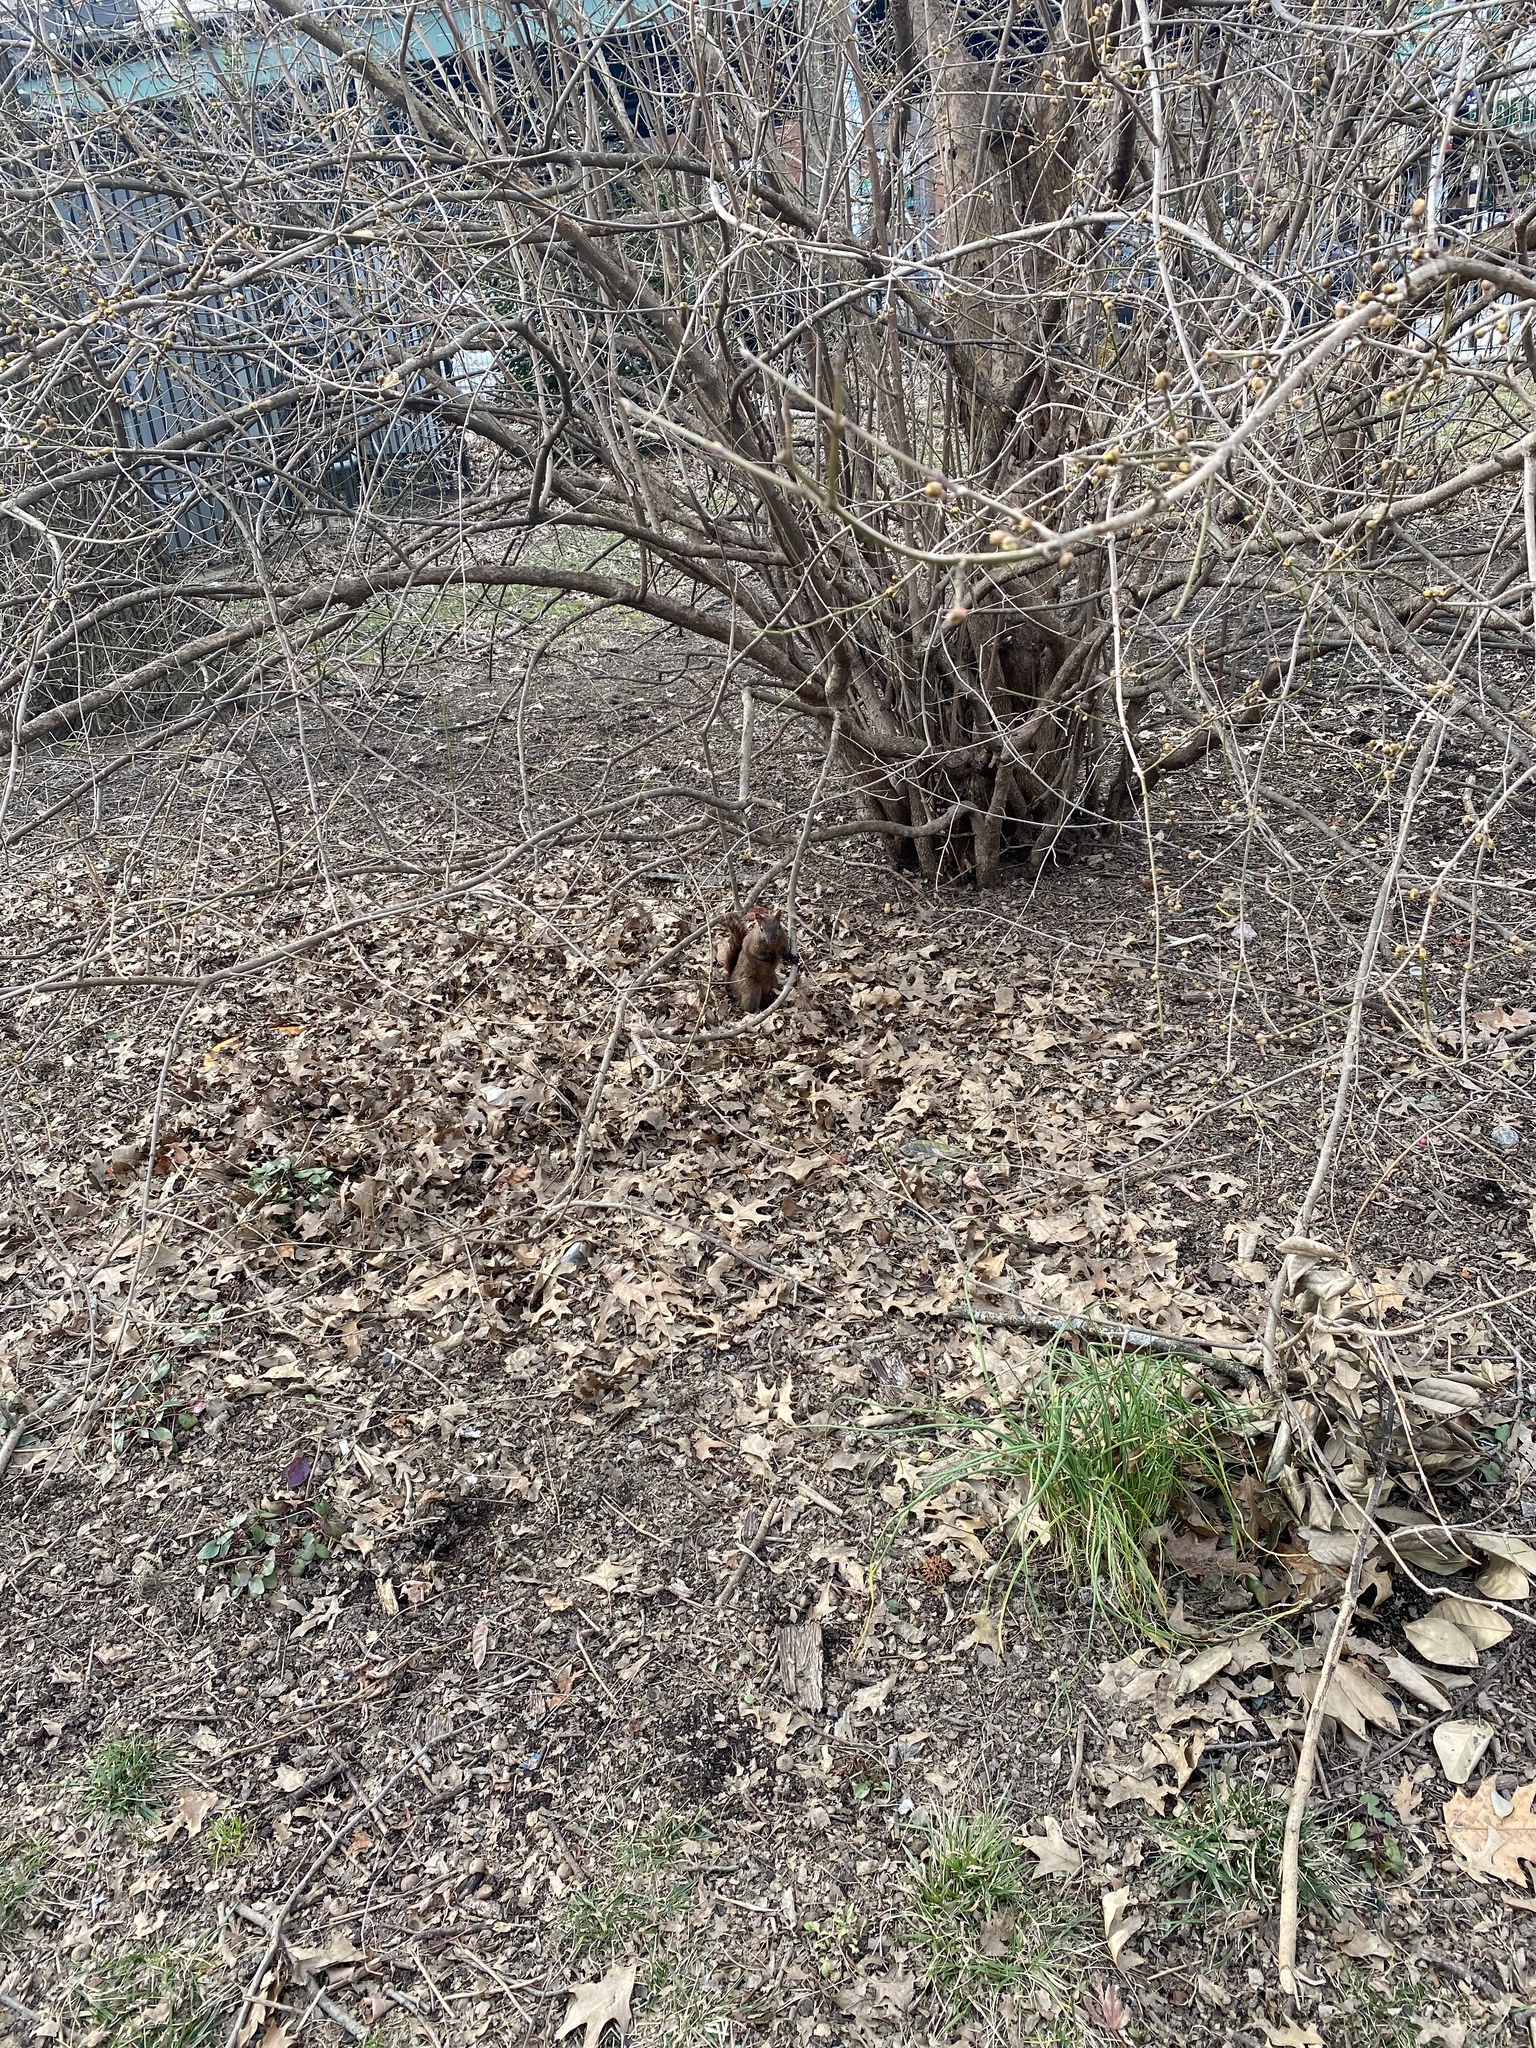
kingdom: Animalia
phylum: Chordata
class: Mammalia
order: Rodentia
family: Sciuridae
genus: Sciurus
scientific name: Sciurus carolinensis
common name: Eastern gray squirrel
